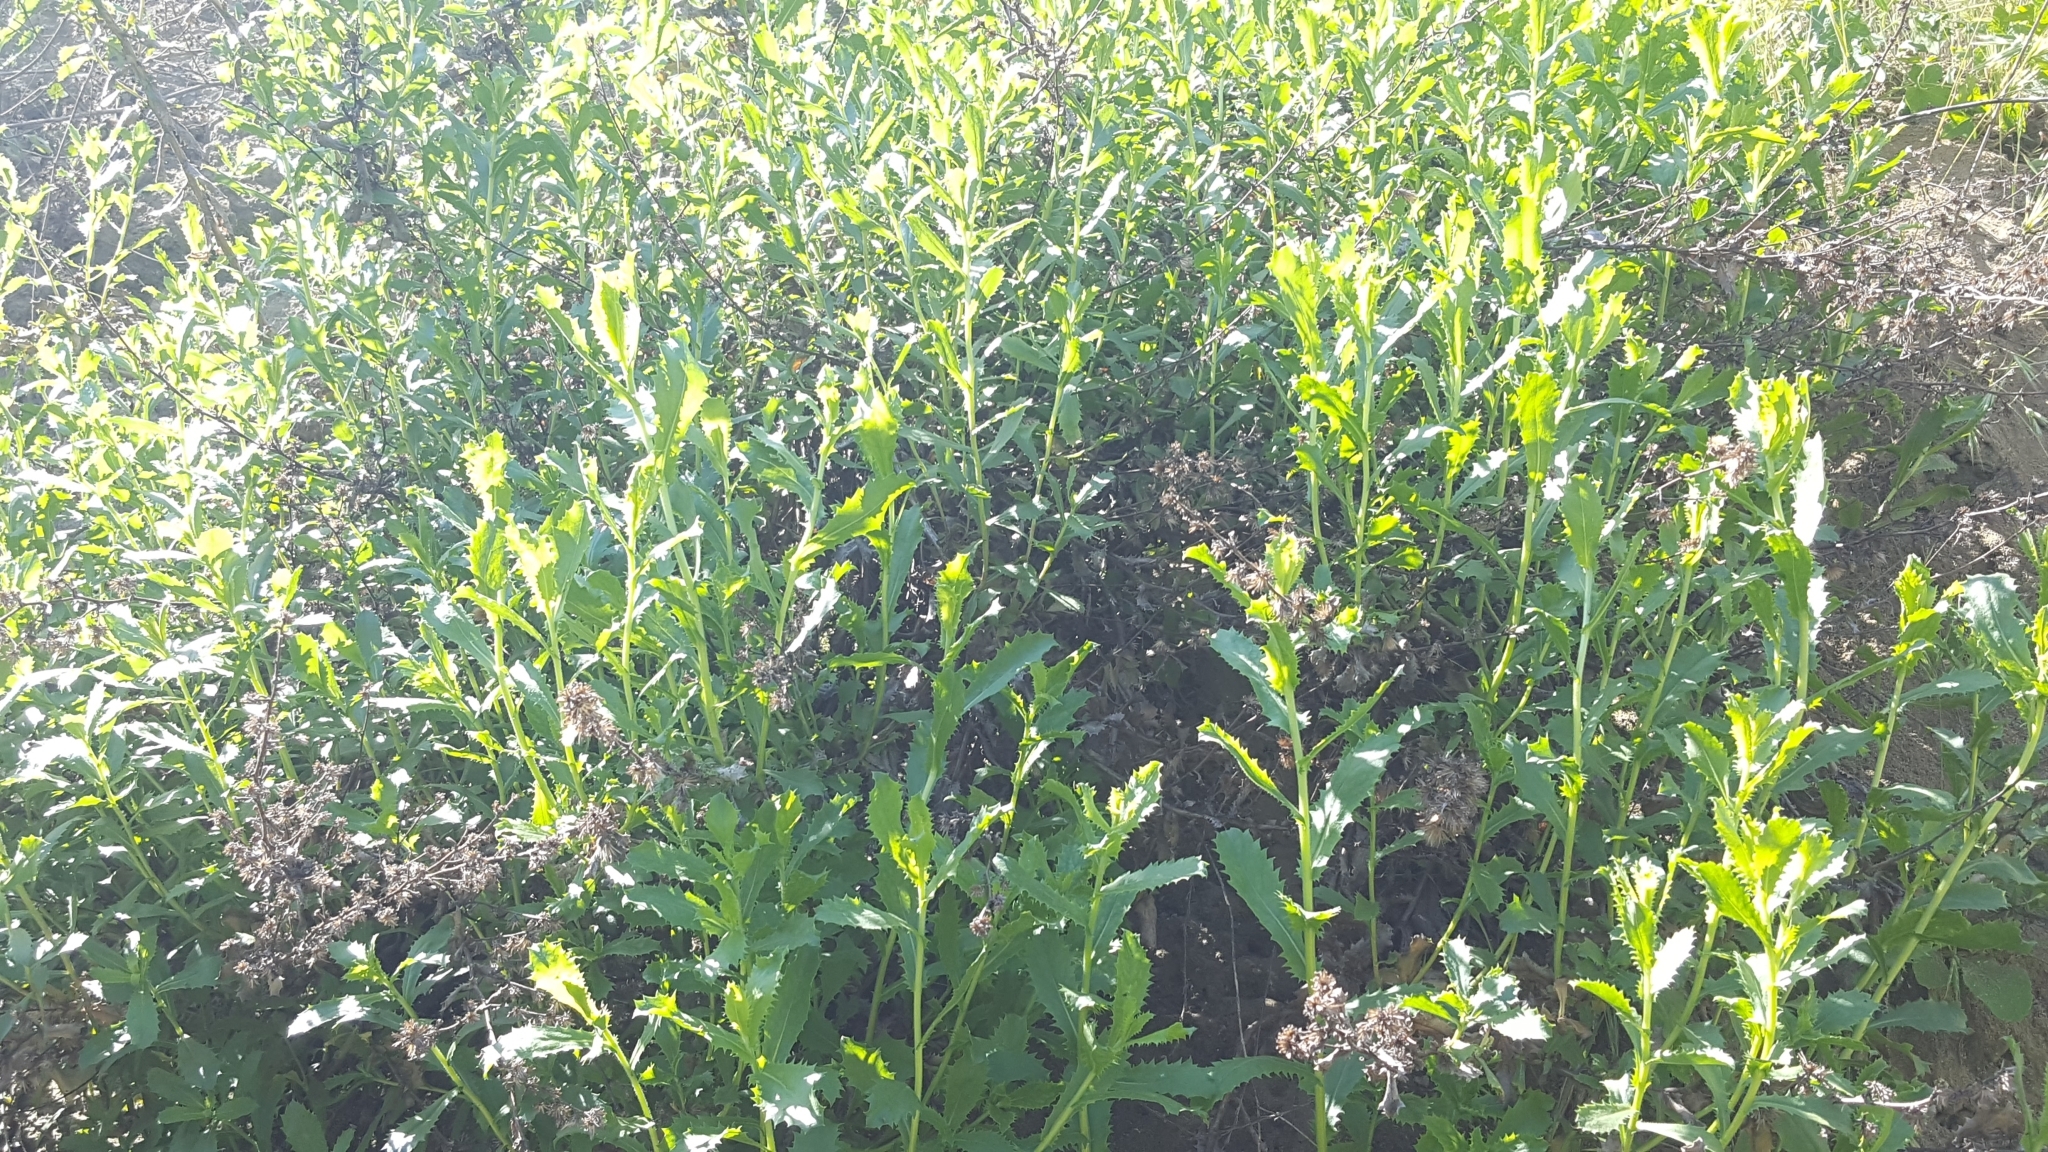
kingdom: Plantae
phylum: Tracheophyta
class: Magnoliopsida
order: Asterales
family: Asteraceae
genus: Hazardia
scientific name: Hazardia squarrosa
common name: Saw-tooth goldenbush
